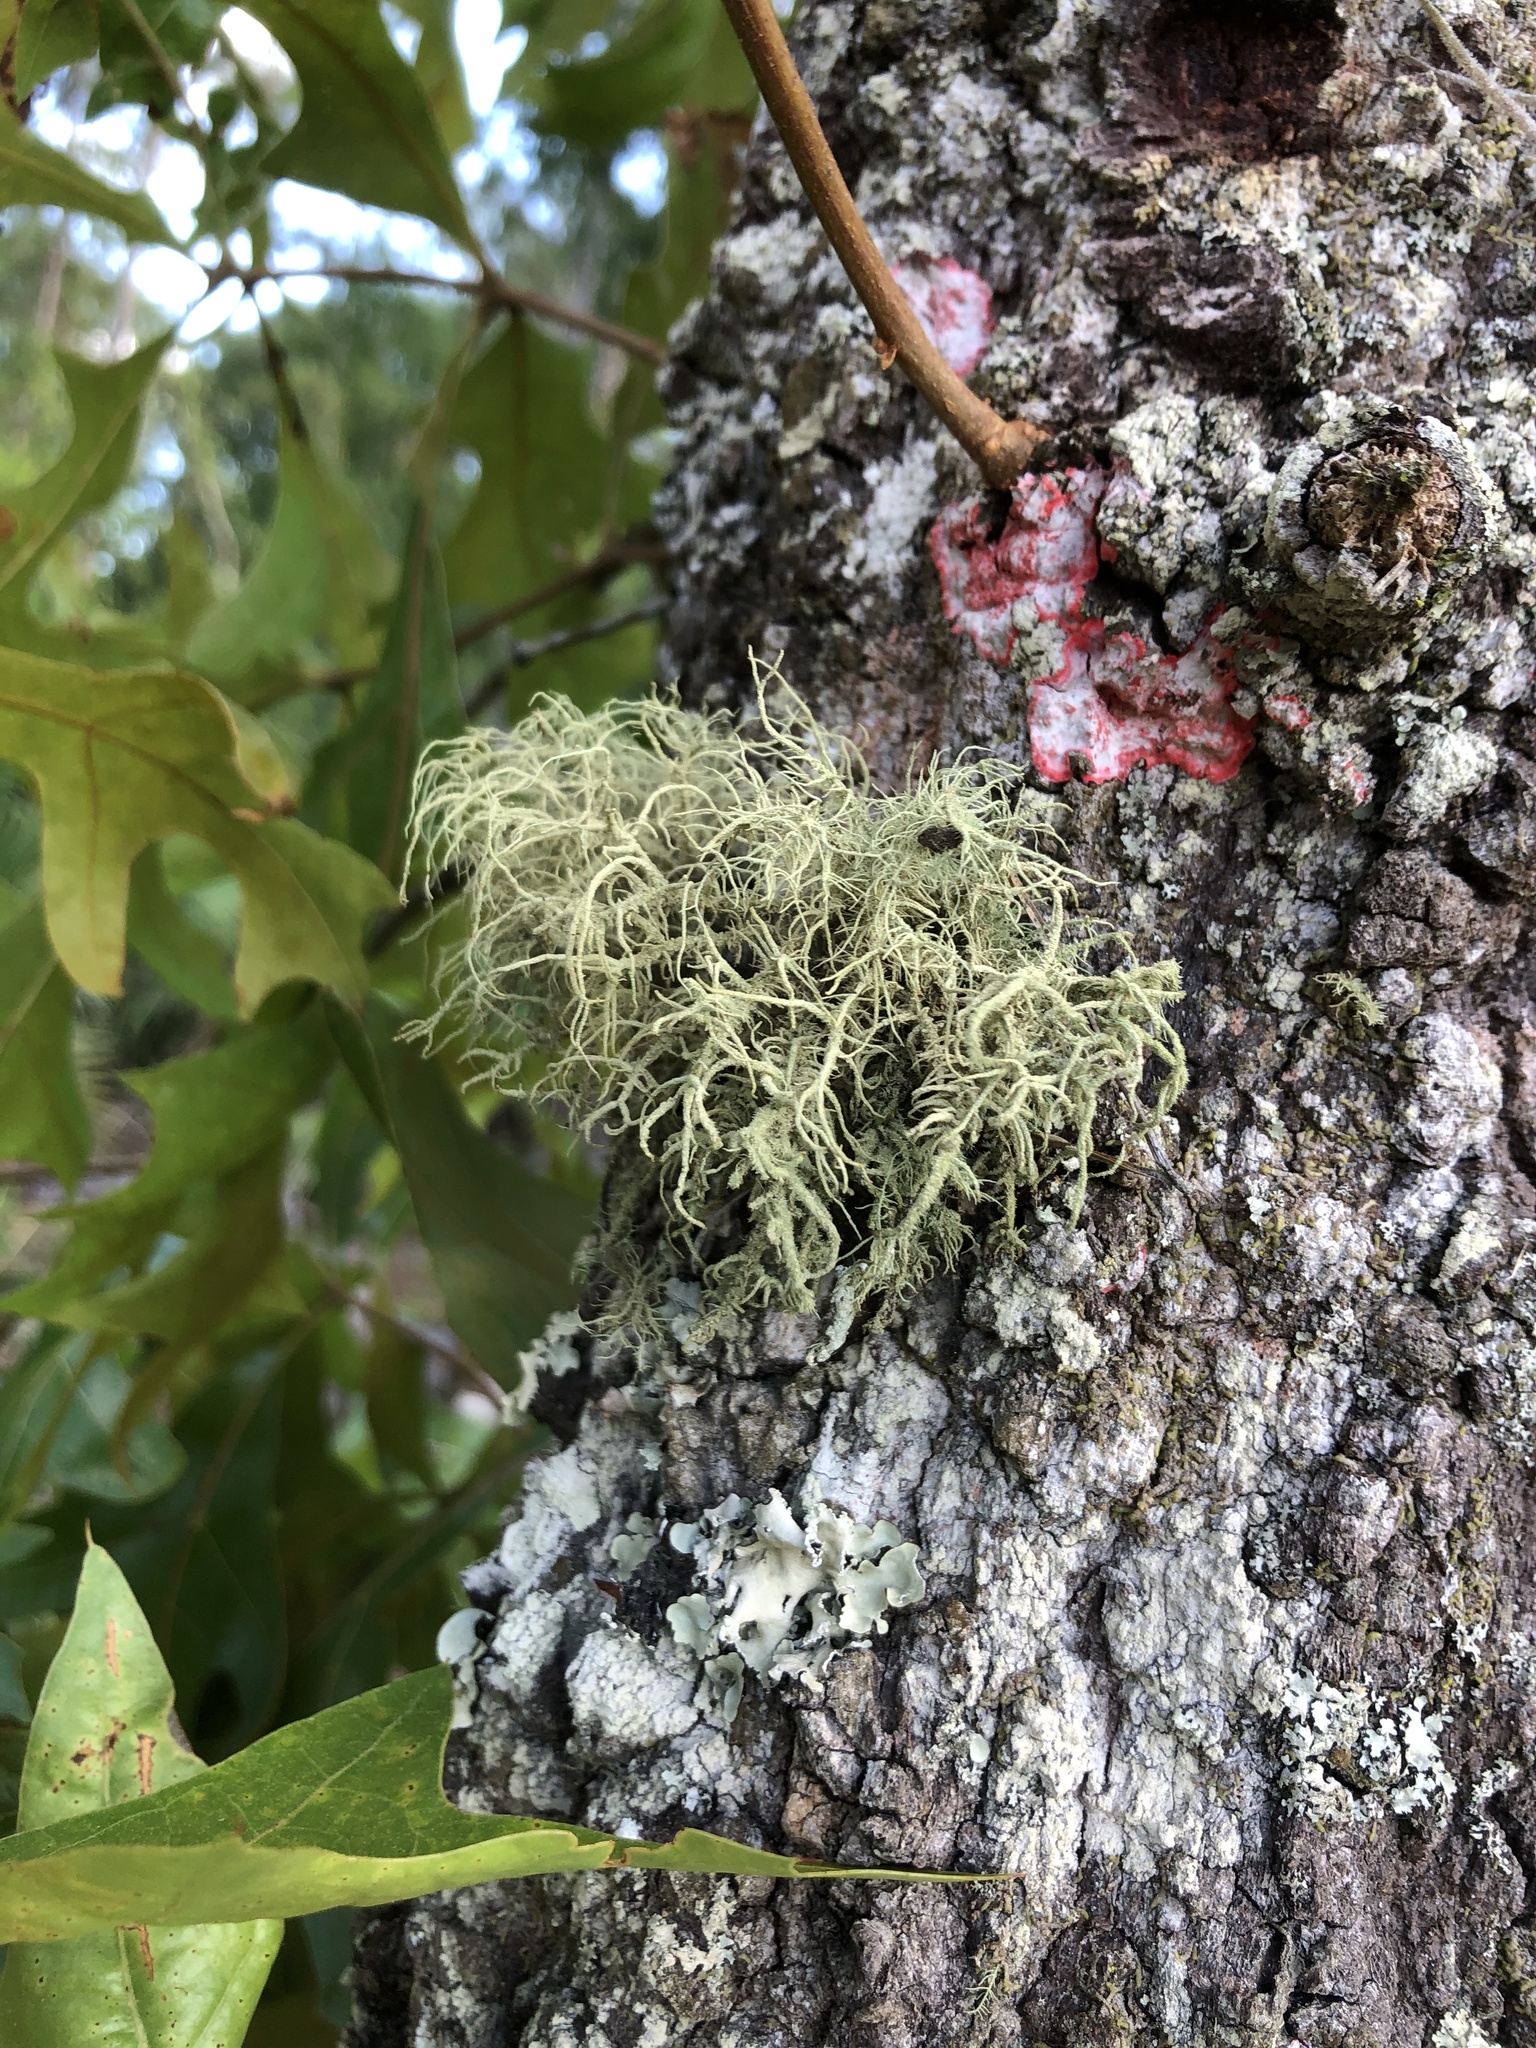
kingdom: Fungi
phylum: Ascomycota
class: Lecanoromycetes
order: Lecanorales
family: Parmeliaceae
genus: Usnea
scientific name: Usnea strigosa
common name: Bushy beard lichen
